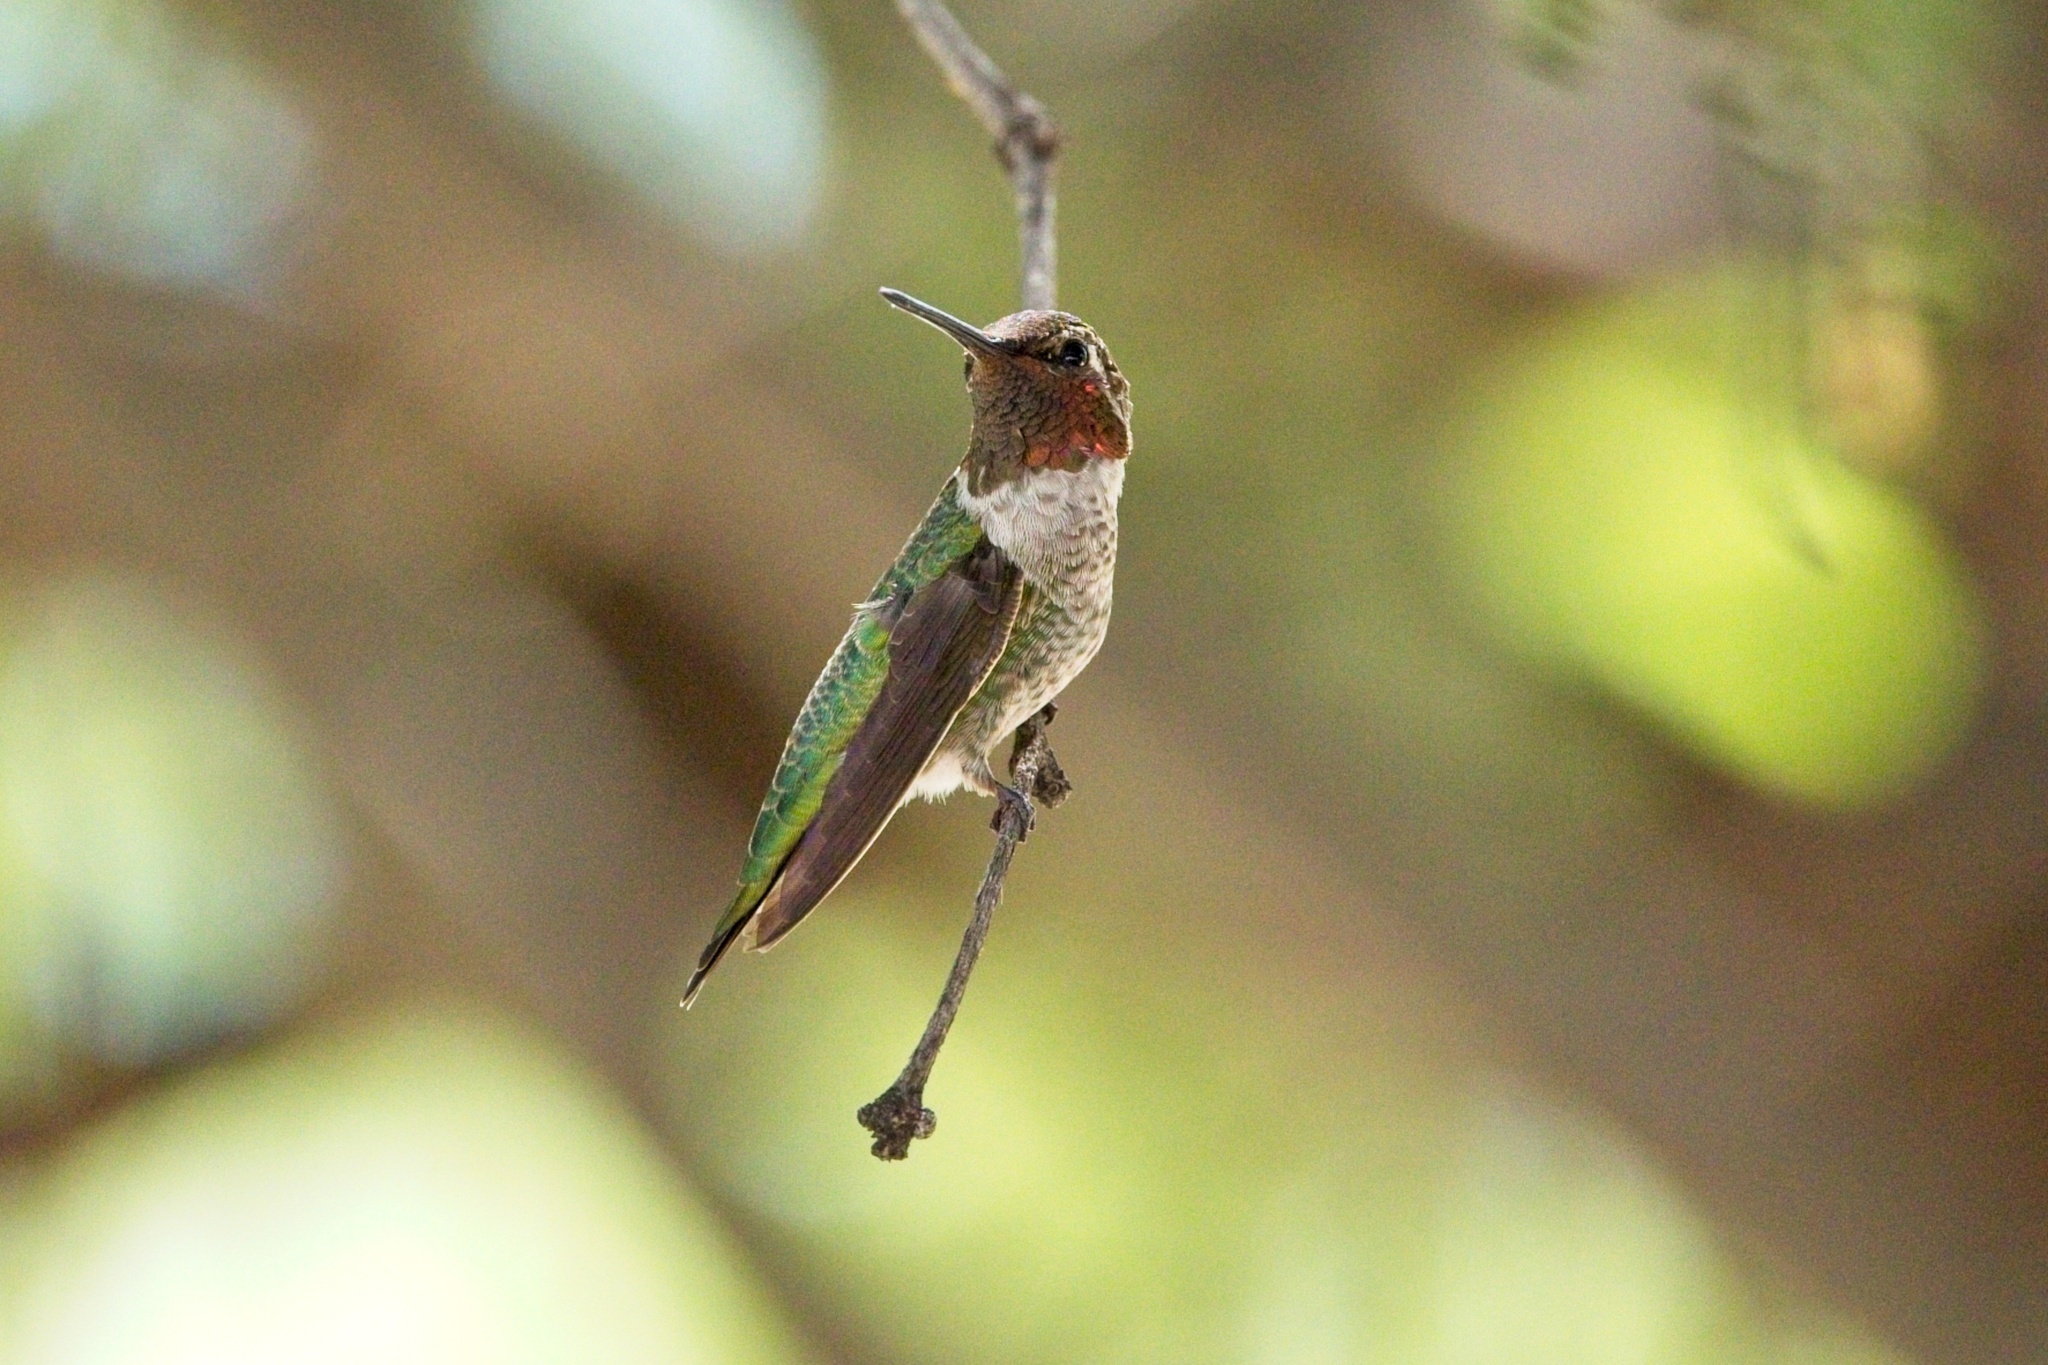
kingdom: Animalia
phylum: Chordata
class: Aves
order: Apodiformes
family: Trochilidae
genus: Calypte
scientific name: Calypte anna
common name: Anna's hummingbird
